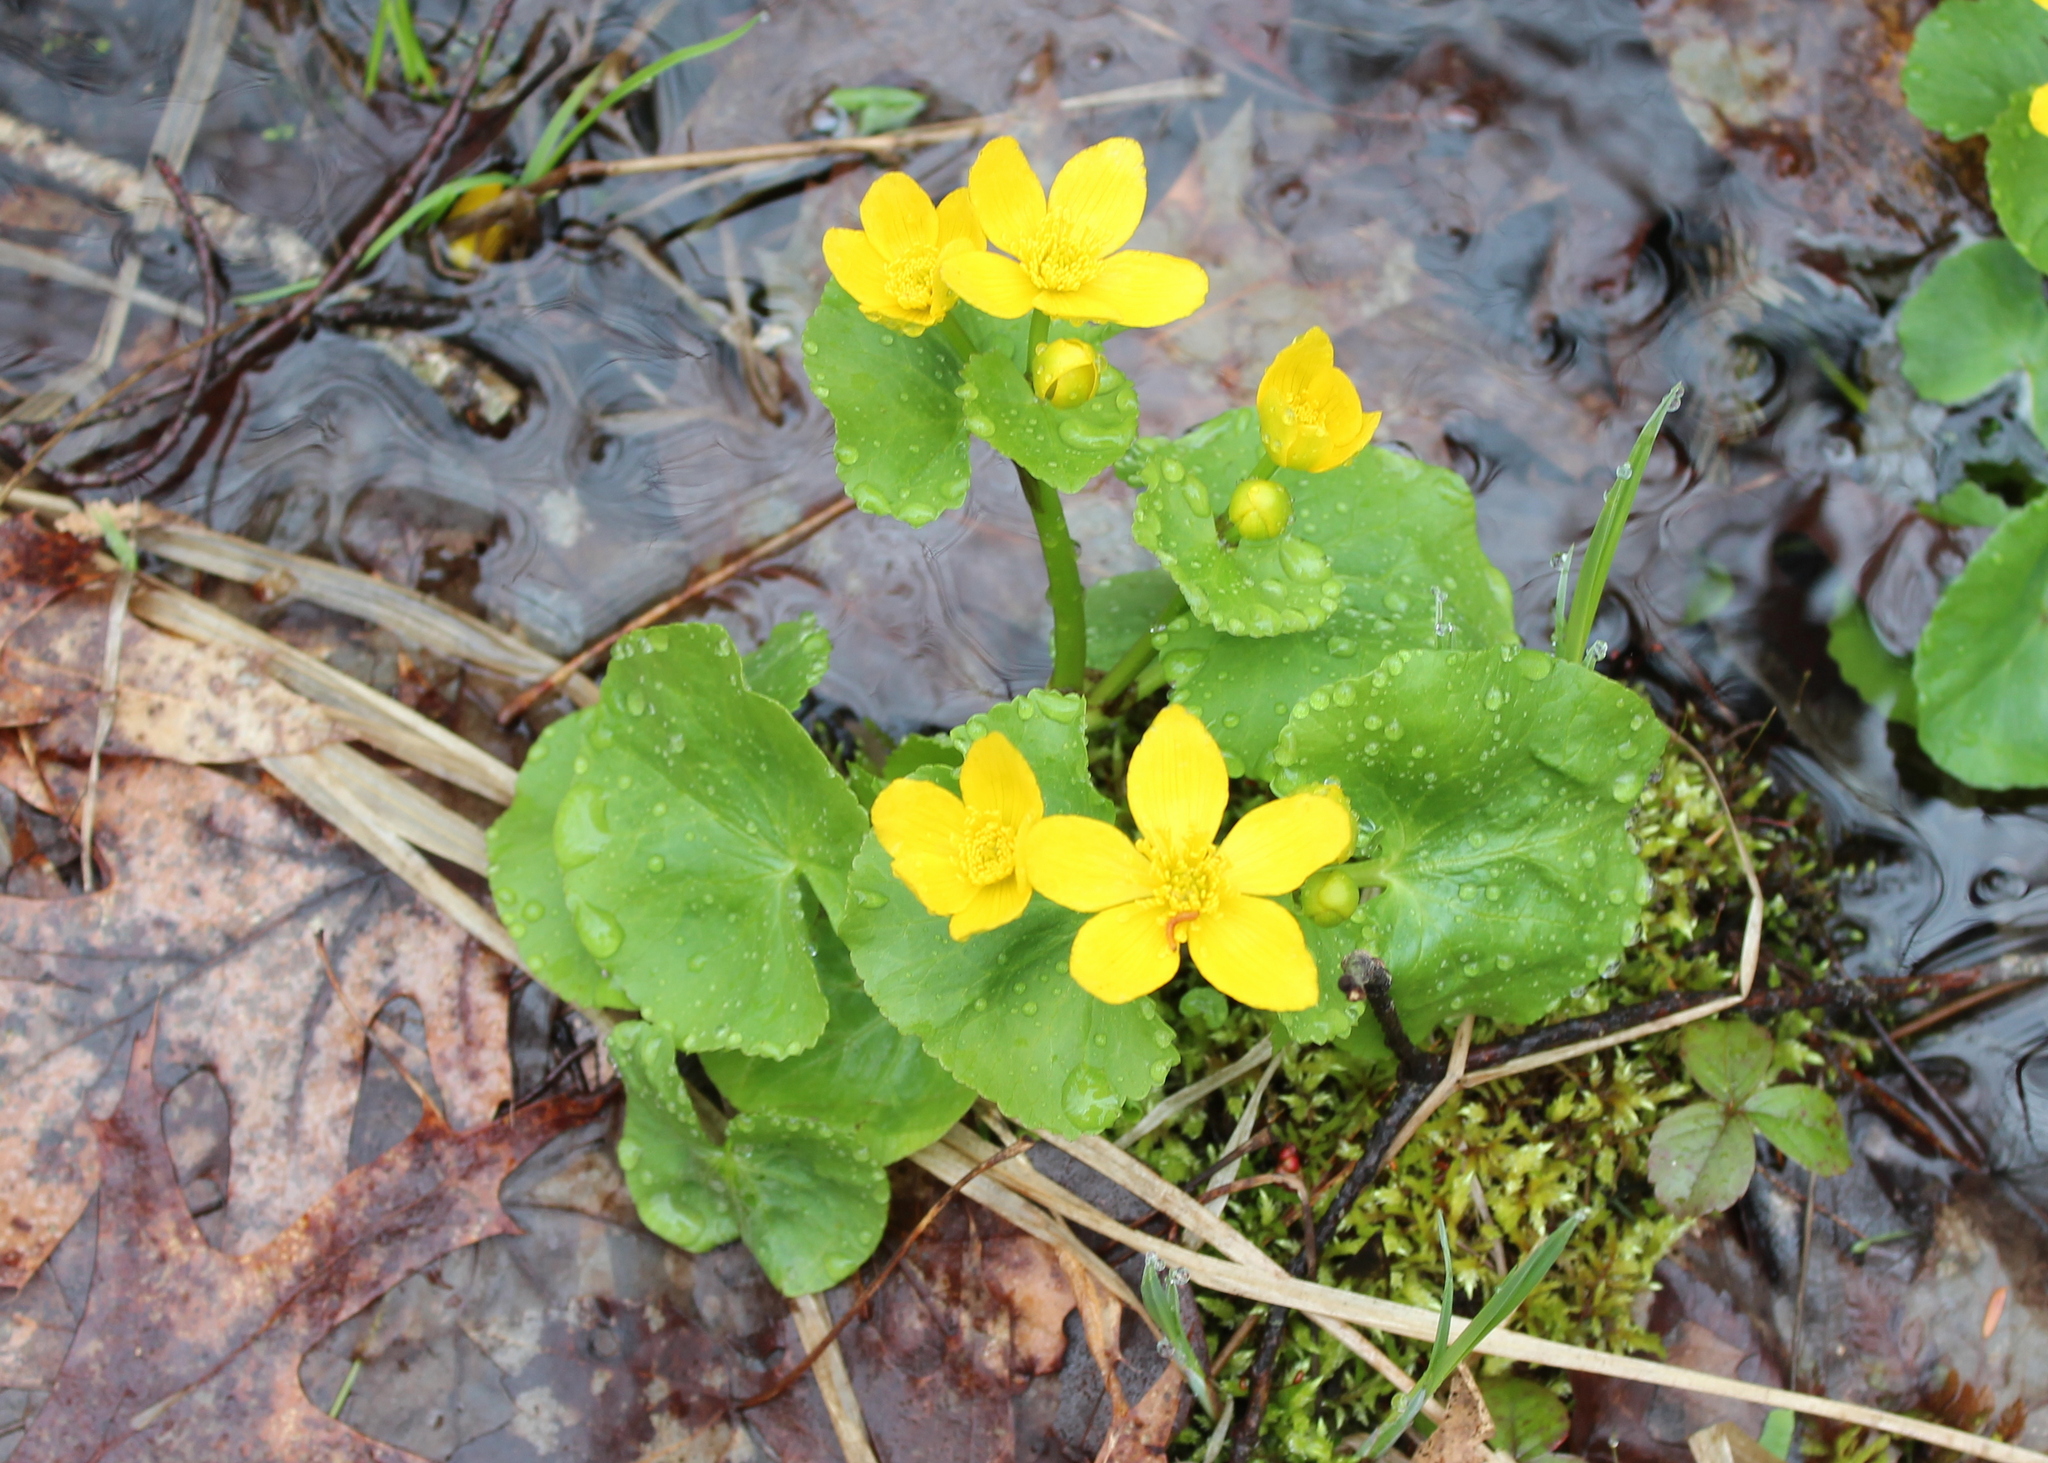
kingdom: Plantae
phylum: Tracheophyta
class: Magnoliopsida
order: Ranunculales
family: Ranunculaceae
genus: Caltha
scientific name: Caltha palustris
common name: Marsh marigold
